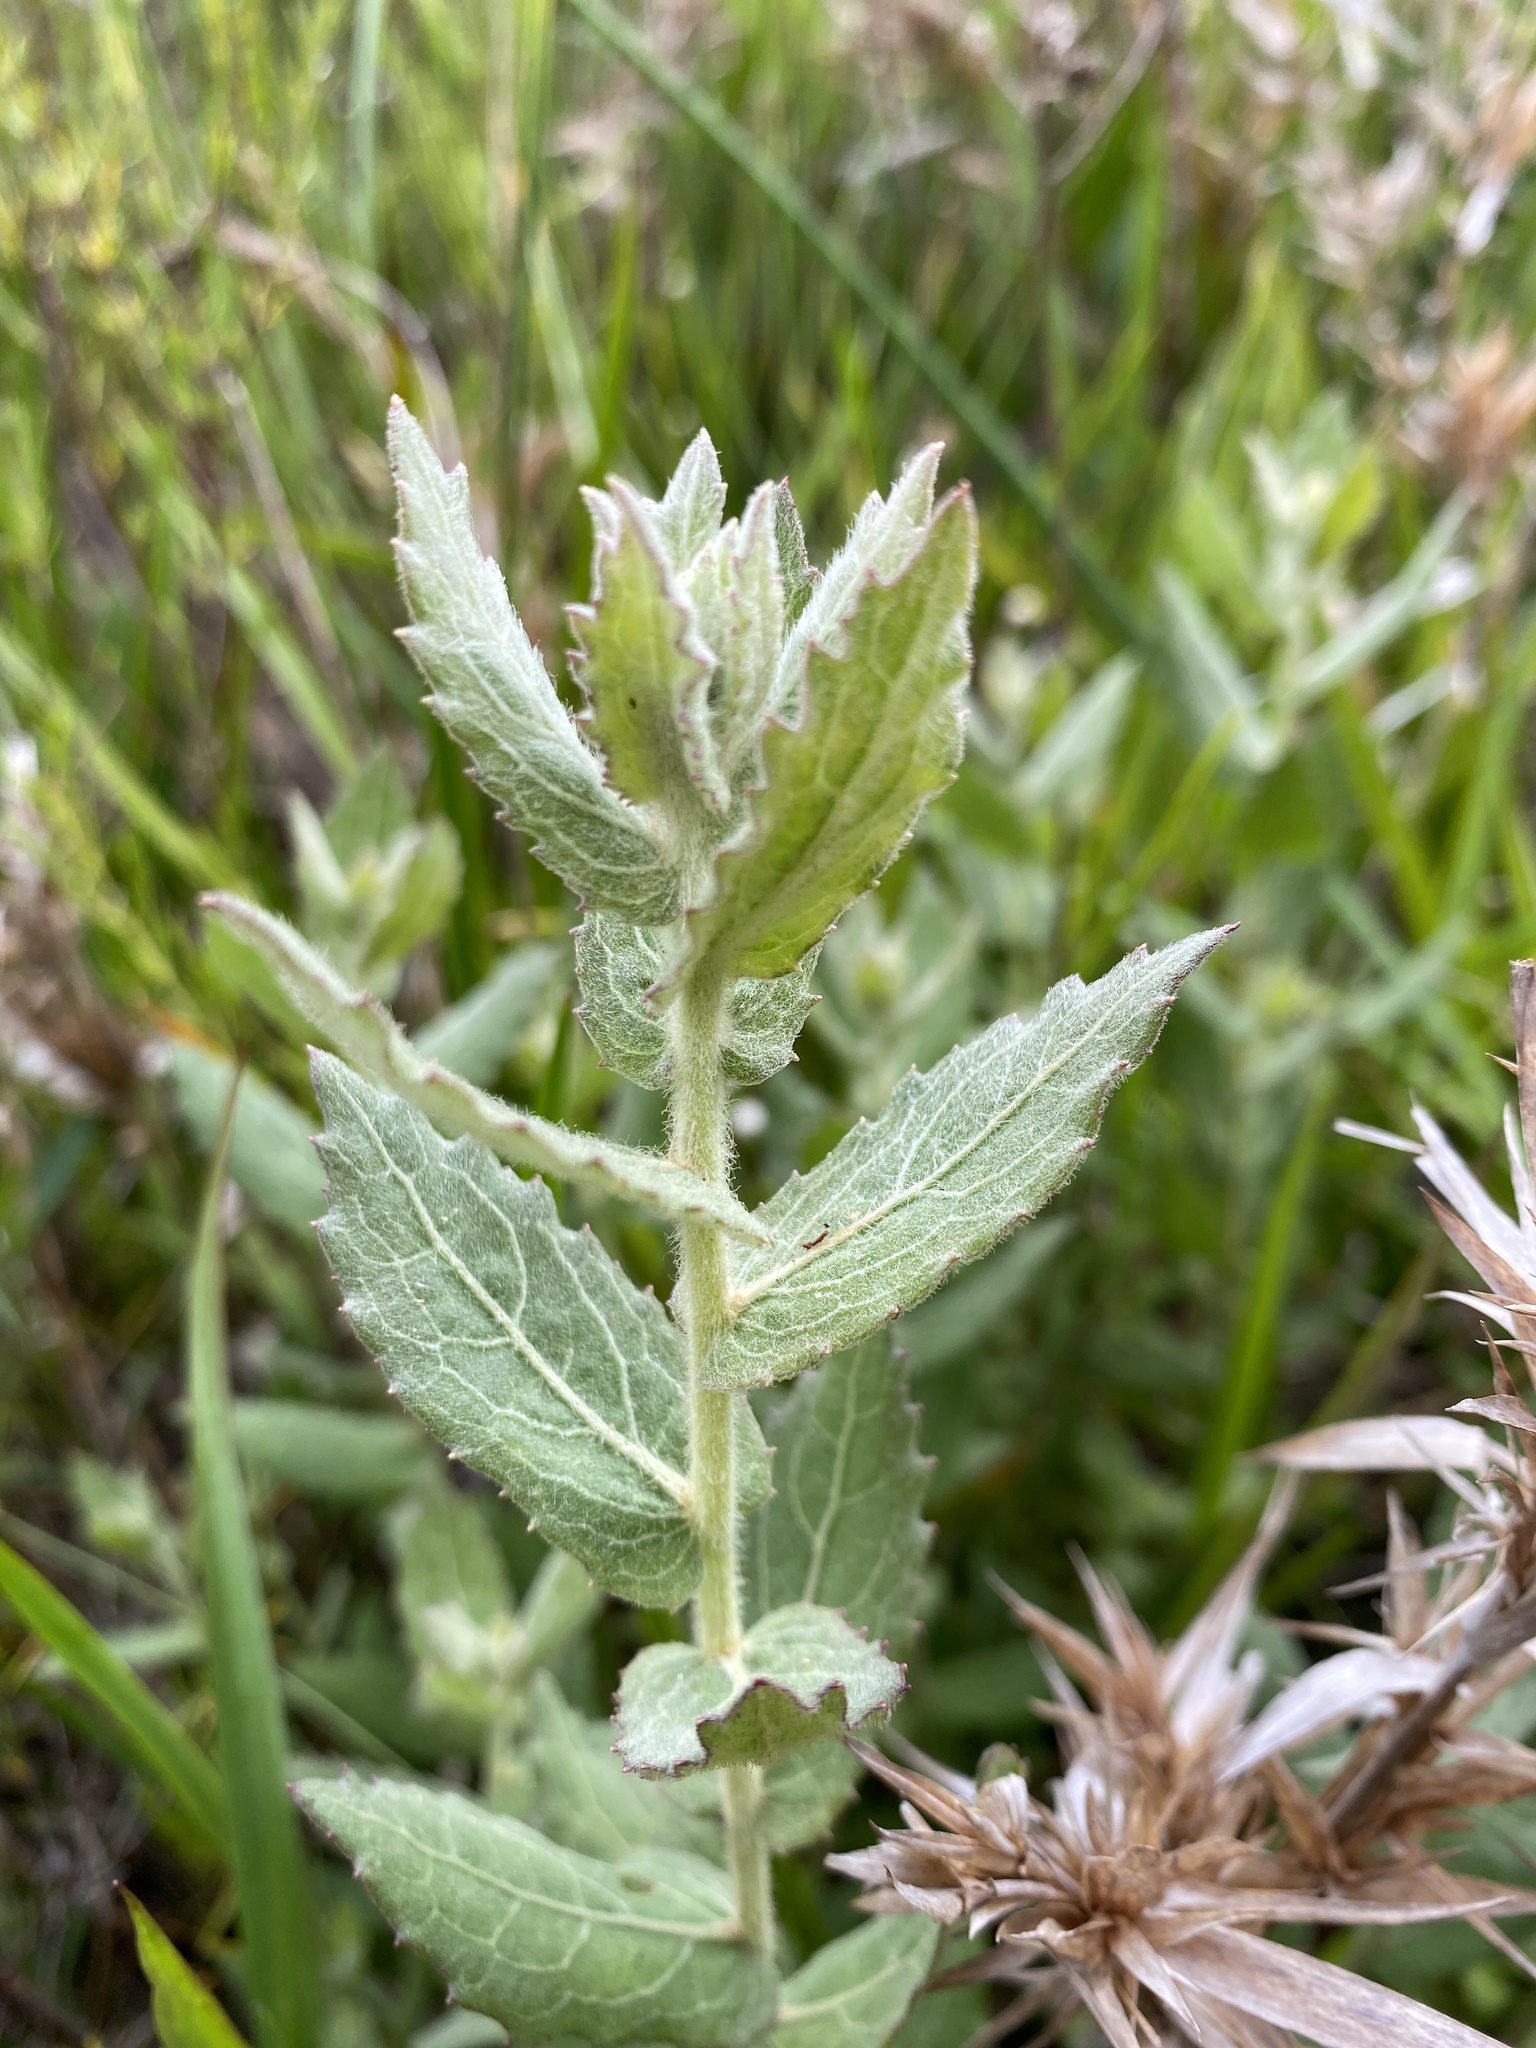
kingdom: Plantae
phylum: Tracheophyta
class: Magnoliopsida
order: Asterales
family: Asteraceae
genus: Pluchea
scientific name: Pluchea baccharis
